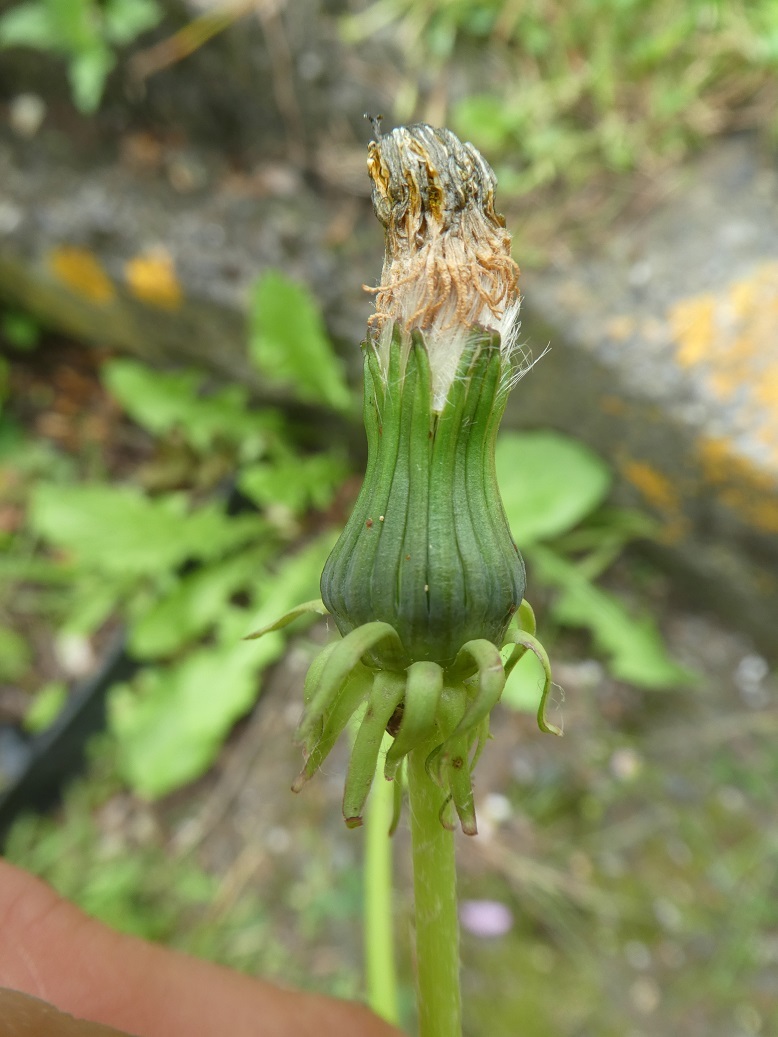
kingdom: Plantae
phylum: Tracheophyta
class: Magnoliopsida
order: Asterales
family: Asteraceae
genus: Taraxacum
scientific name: Taraxacum officinale
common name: Common dandelion
